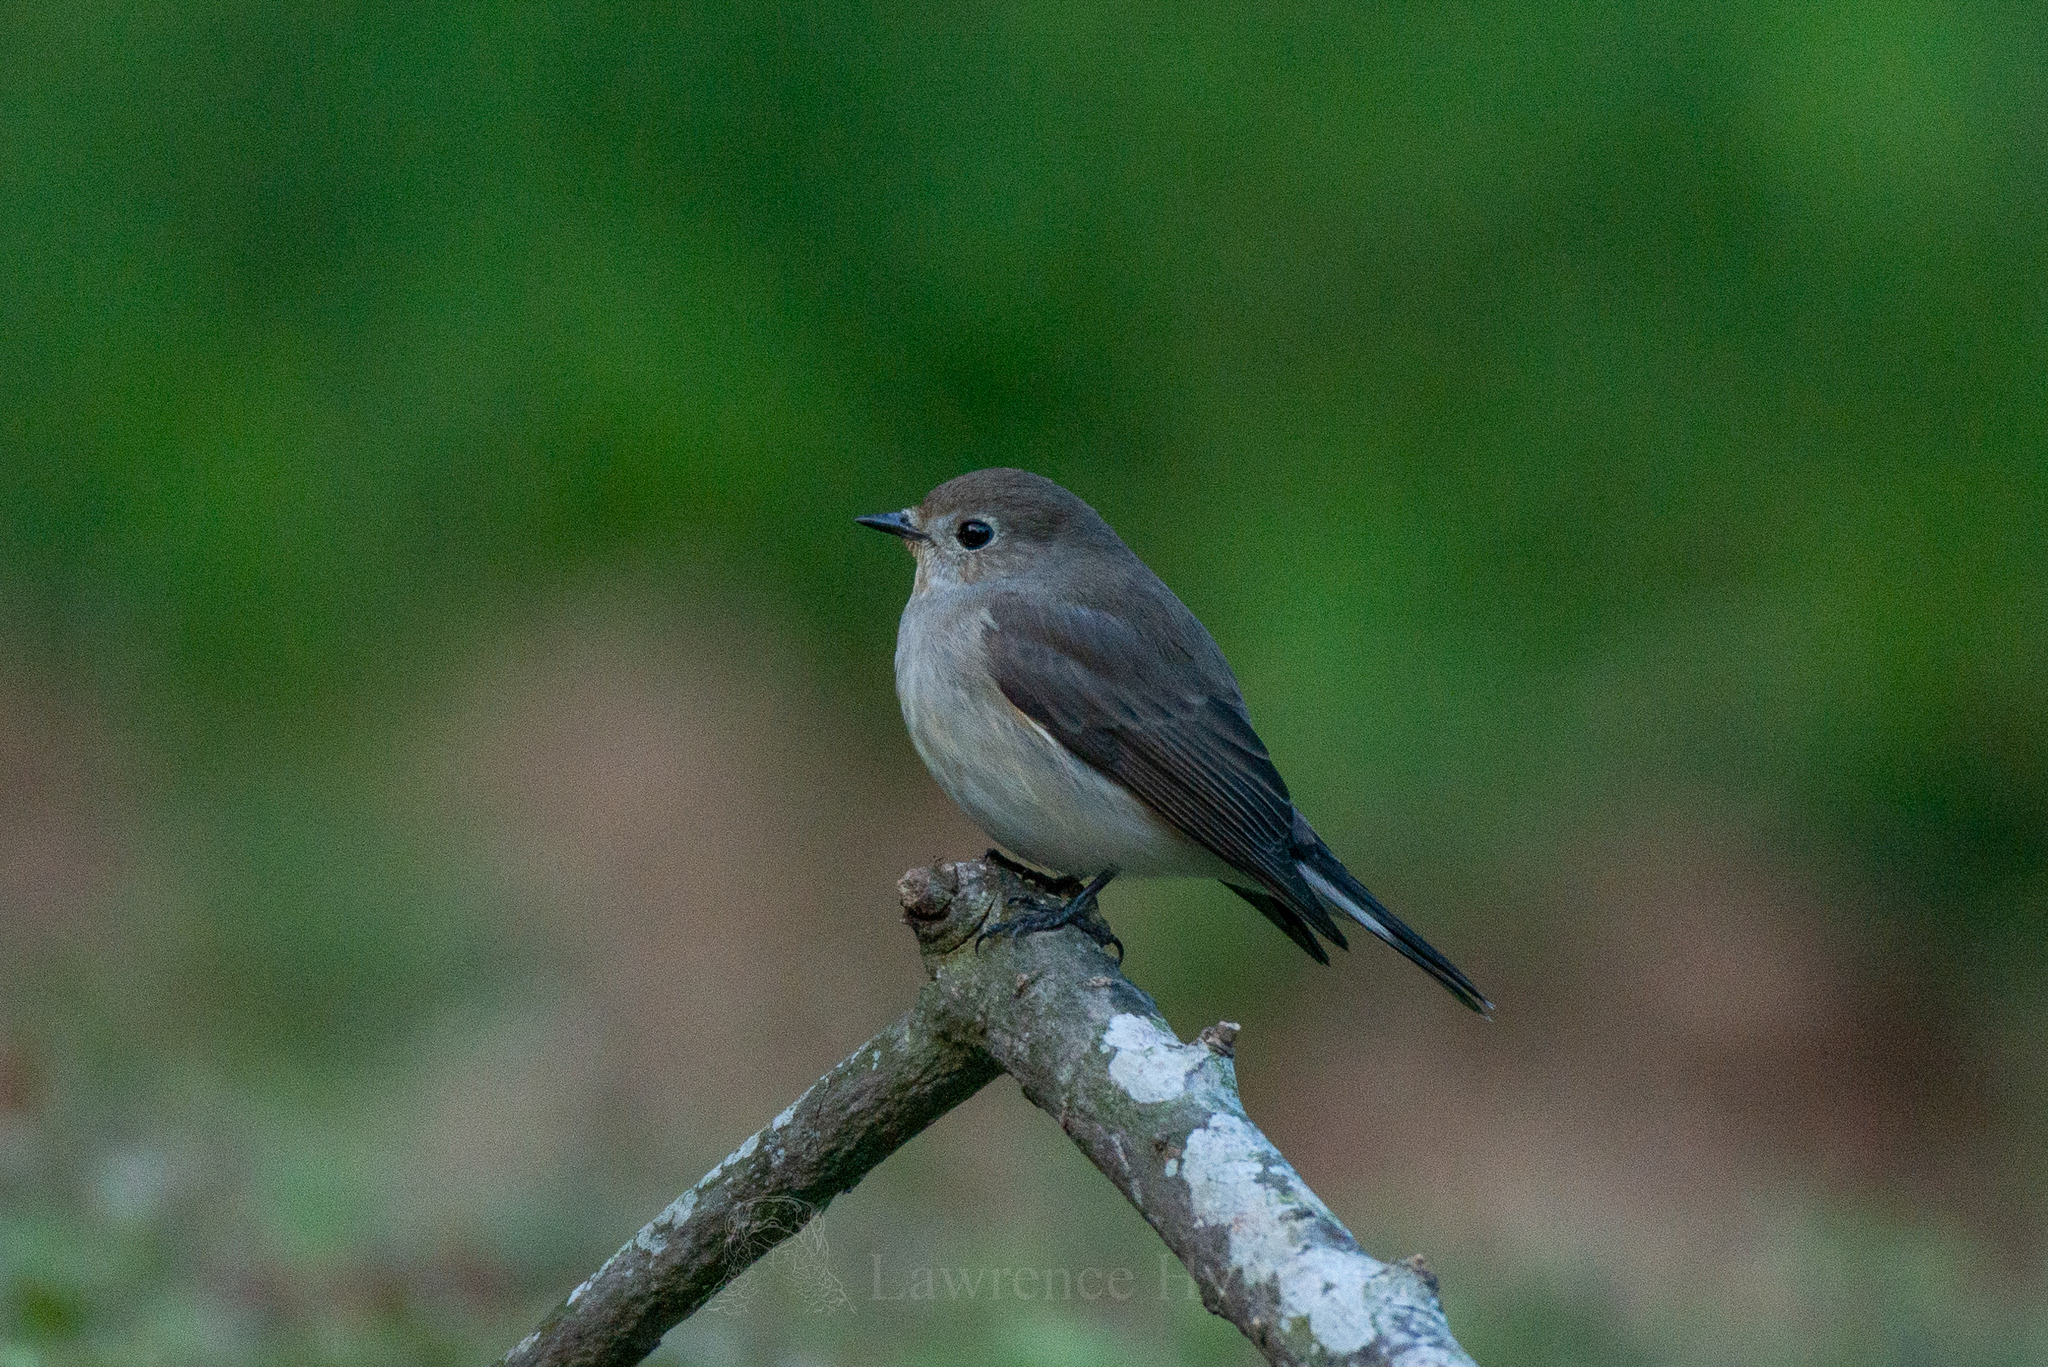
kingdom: Animalia
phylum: Chordata
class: Aves
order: Passeriformes
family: Muscicapidae
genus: Ficedula
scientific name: Ficedula albicilla
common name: Taiga flycatcher
